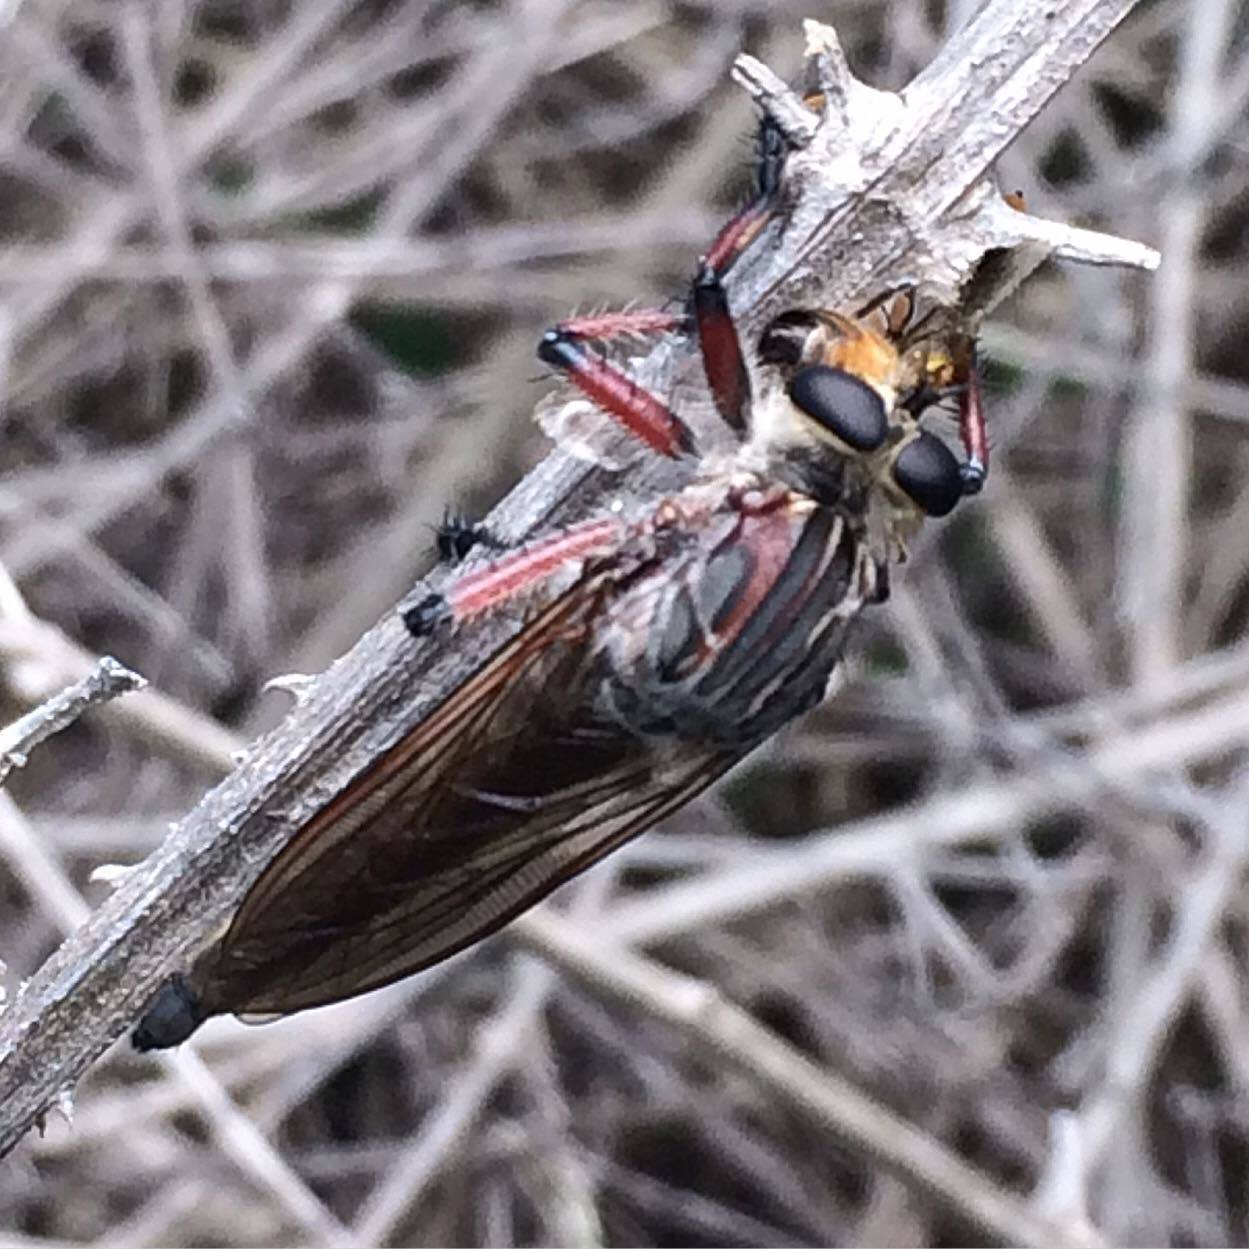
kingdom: Animalia
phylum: Arthropoda
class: Insecta
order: Diptera
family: Asilidae
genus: Neoaratus
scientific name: Neoaratus hercules
